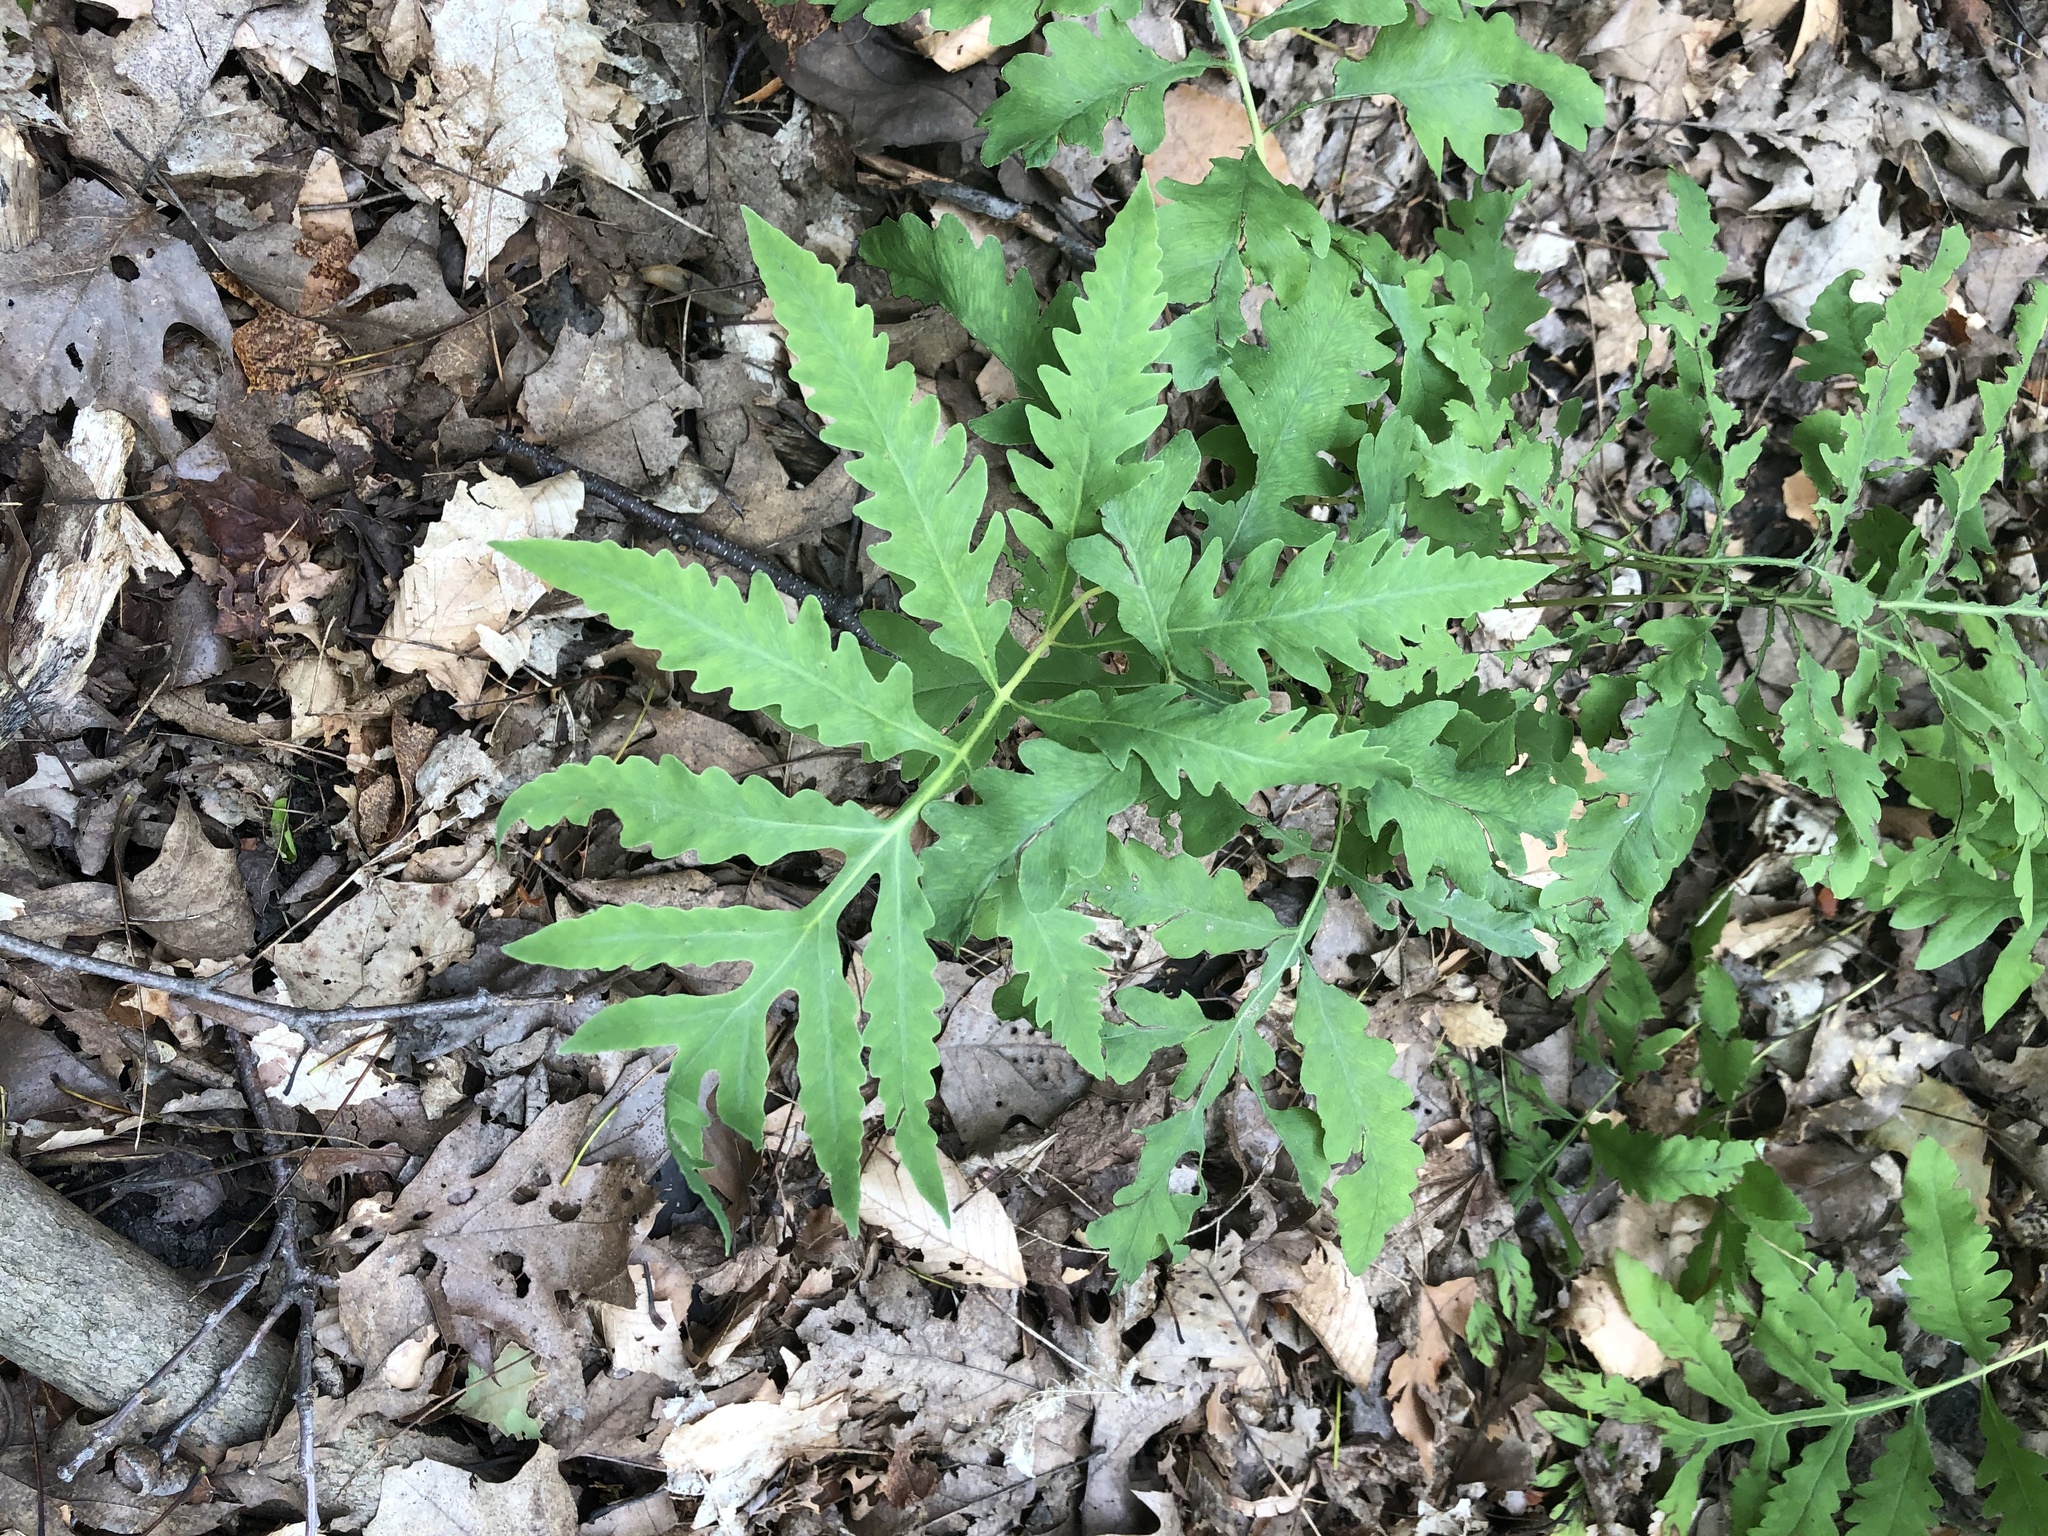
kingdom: Plantae
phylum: Tracheophyta
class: Polypodiopsida
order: Polypodiales
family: Onocleaceae
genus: Onoclea
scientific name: Onoclea sensibilis
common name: Sensitive fern
